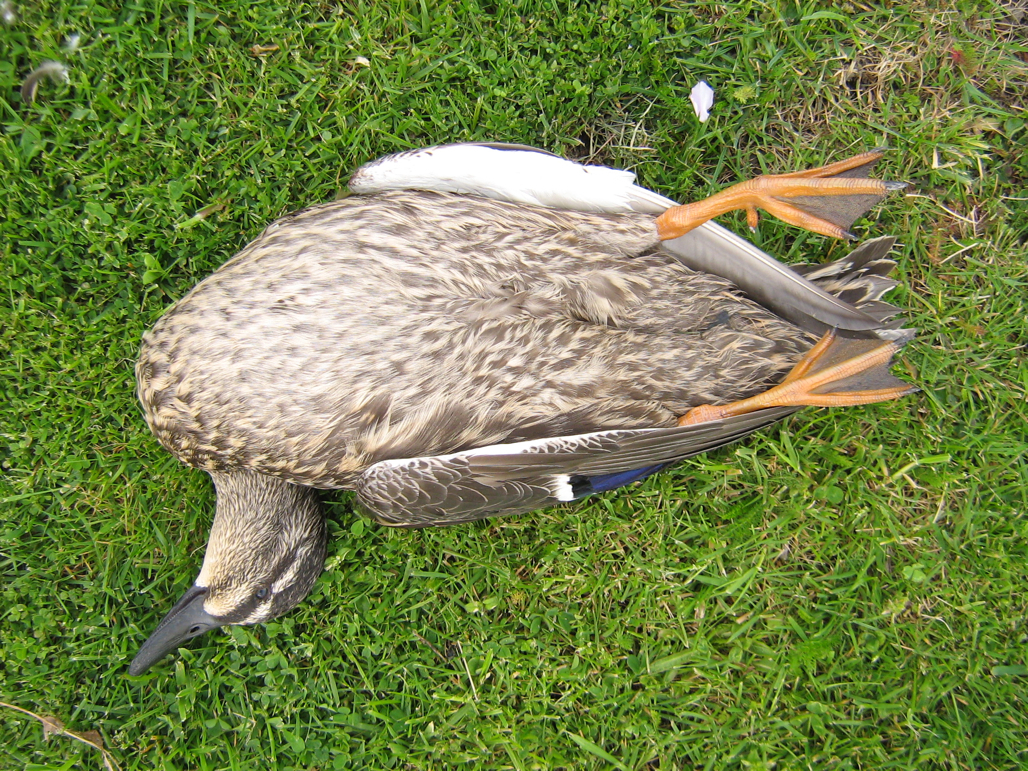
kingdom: Animalia
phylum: Chordata
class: Aves
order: Anseriformes
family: Anatidae
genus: Anas
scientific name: Anas
